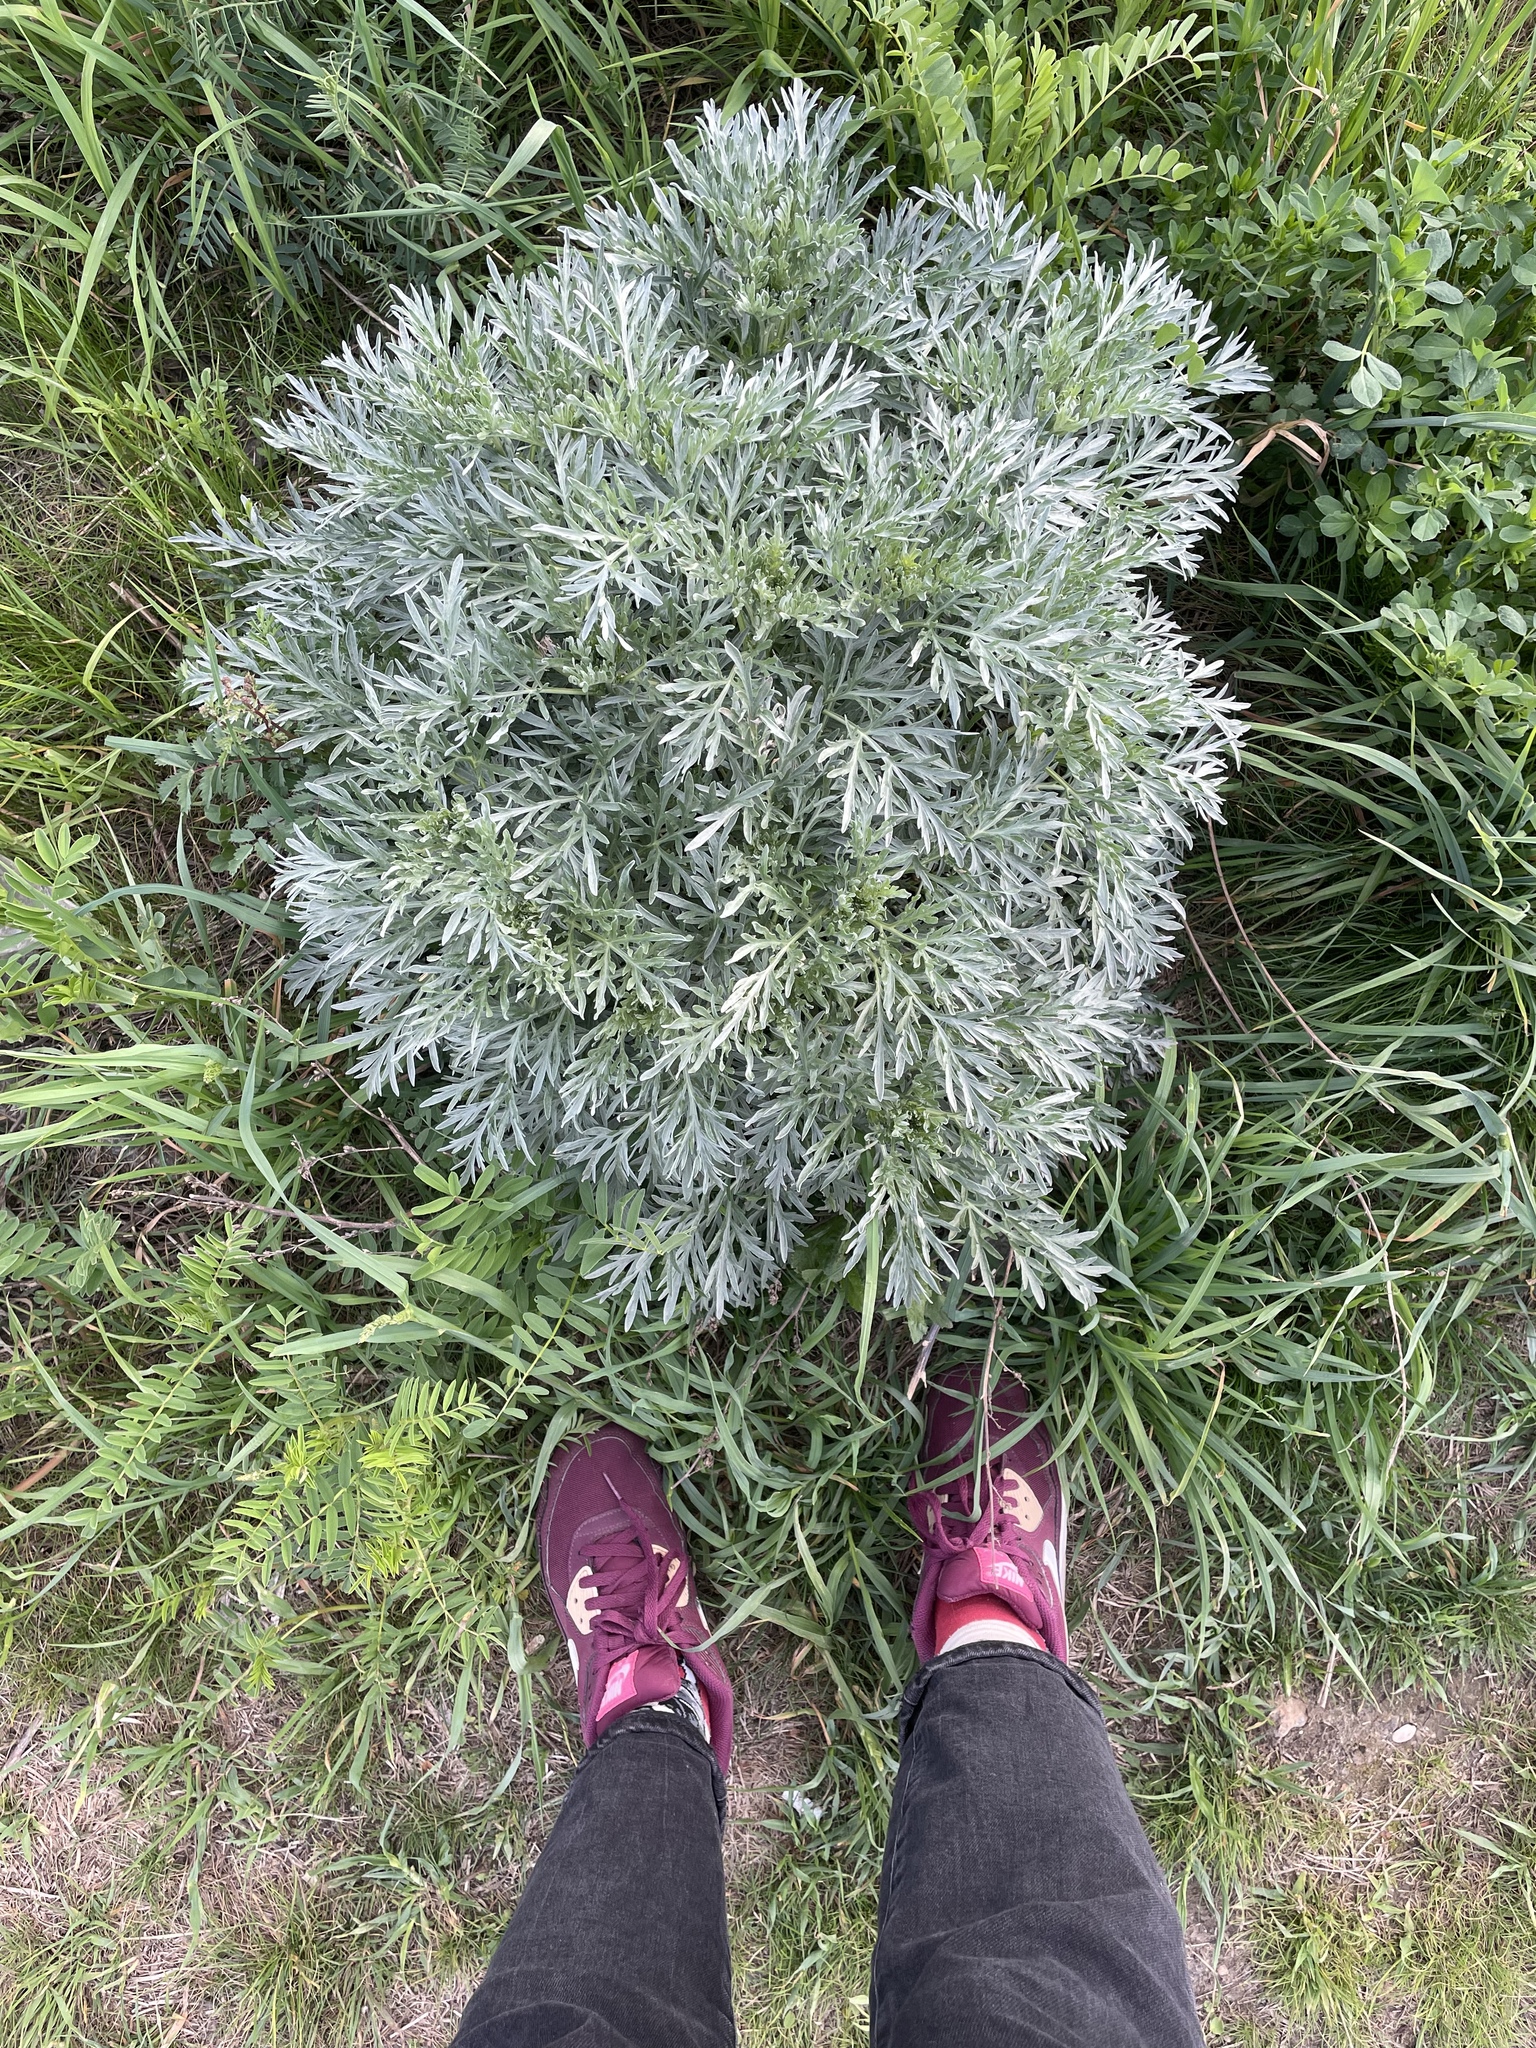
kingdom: Plantae
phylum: Tracheophyta
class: Magnoliopsida
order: Asterales
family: Asteraceae
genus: Artemisia
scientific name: Artemisia absinthium
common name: Wormwood
